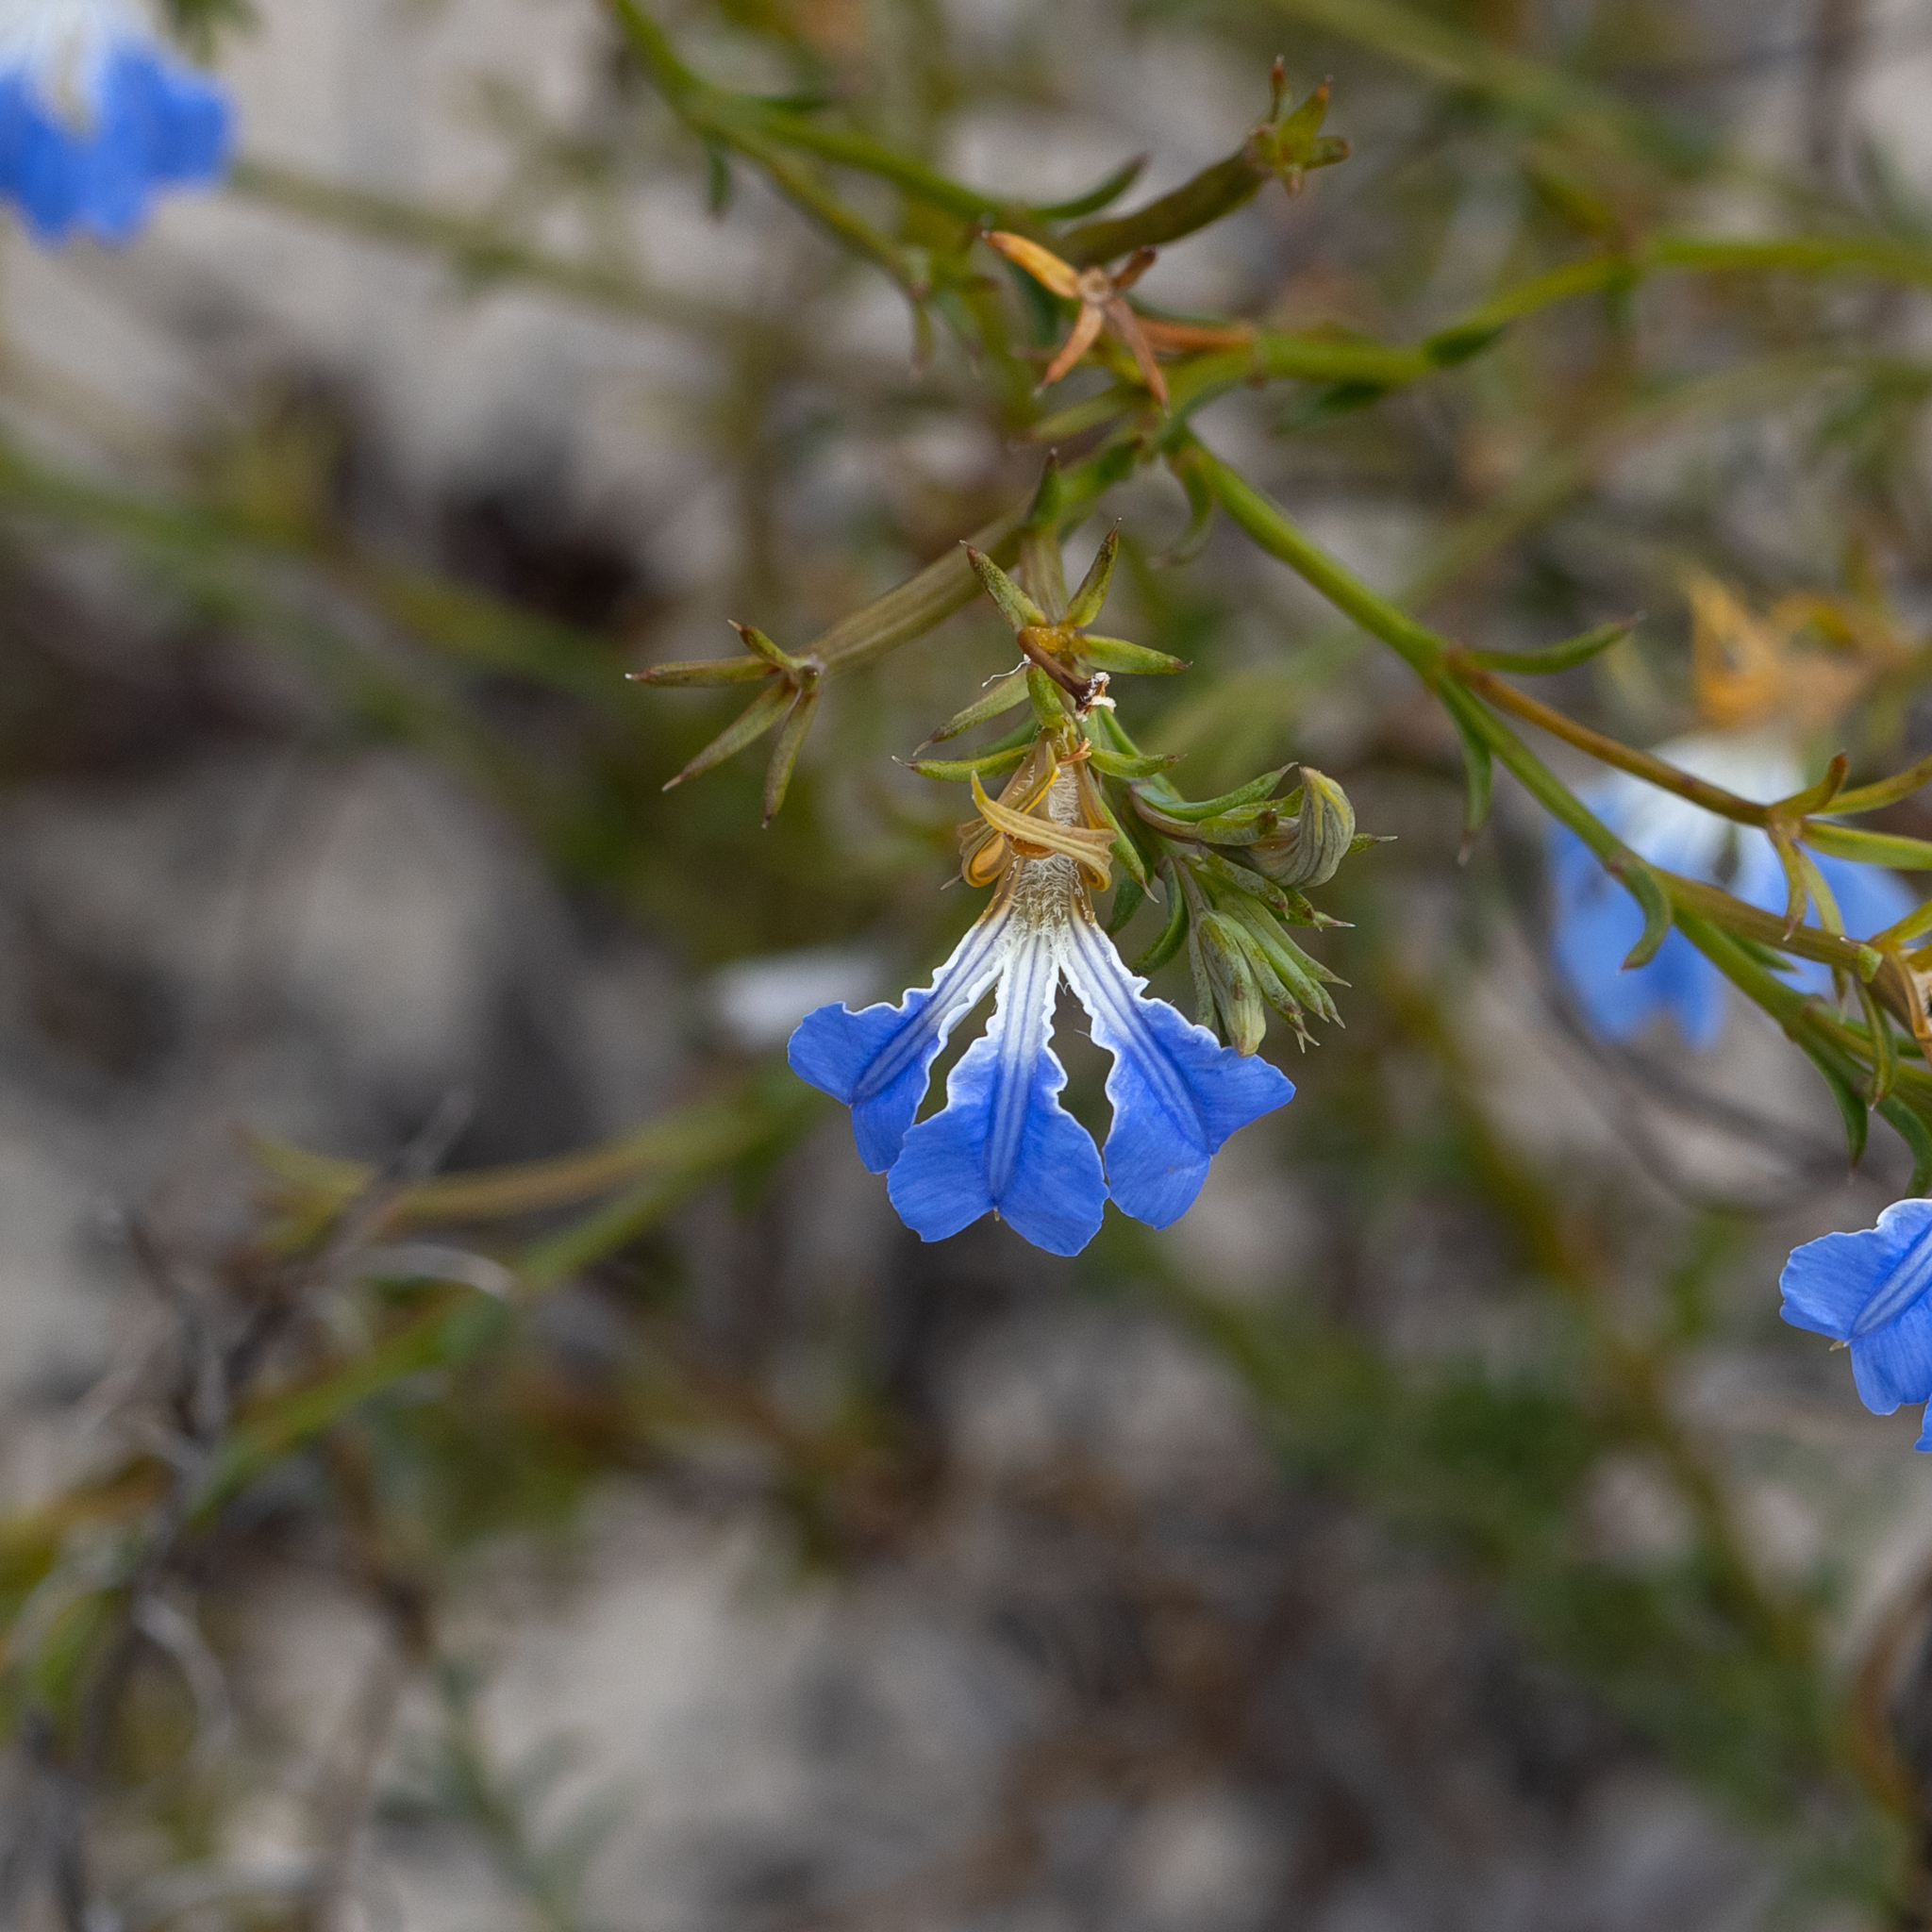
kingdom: Plantae
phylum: Tracheophyta
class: Magnoliopsida
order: Asterales
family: Goodeniaceae
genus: Lechenaultia
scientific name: Lechenaultia heteromera
